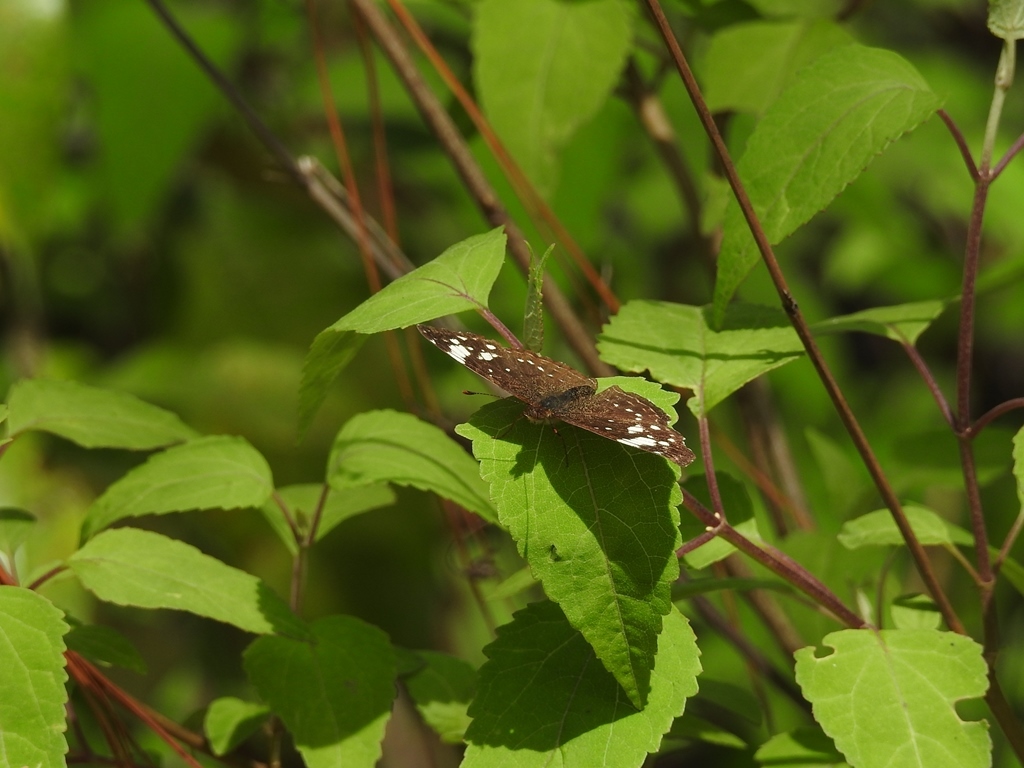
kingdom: Animalia
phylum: Arthropoda
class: Insecta
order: Lepidoptera
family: Nymphalidae
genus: Anthanassa
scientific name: Anthanassa sitalces
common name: Montane crescent
